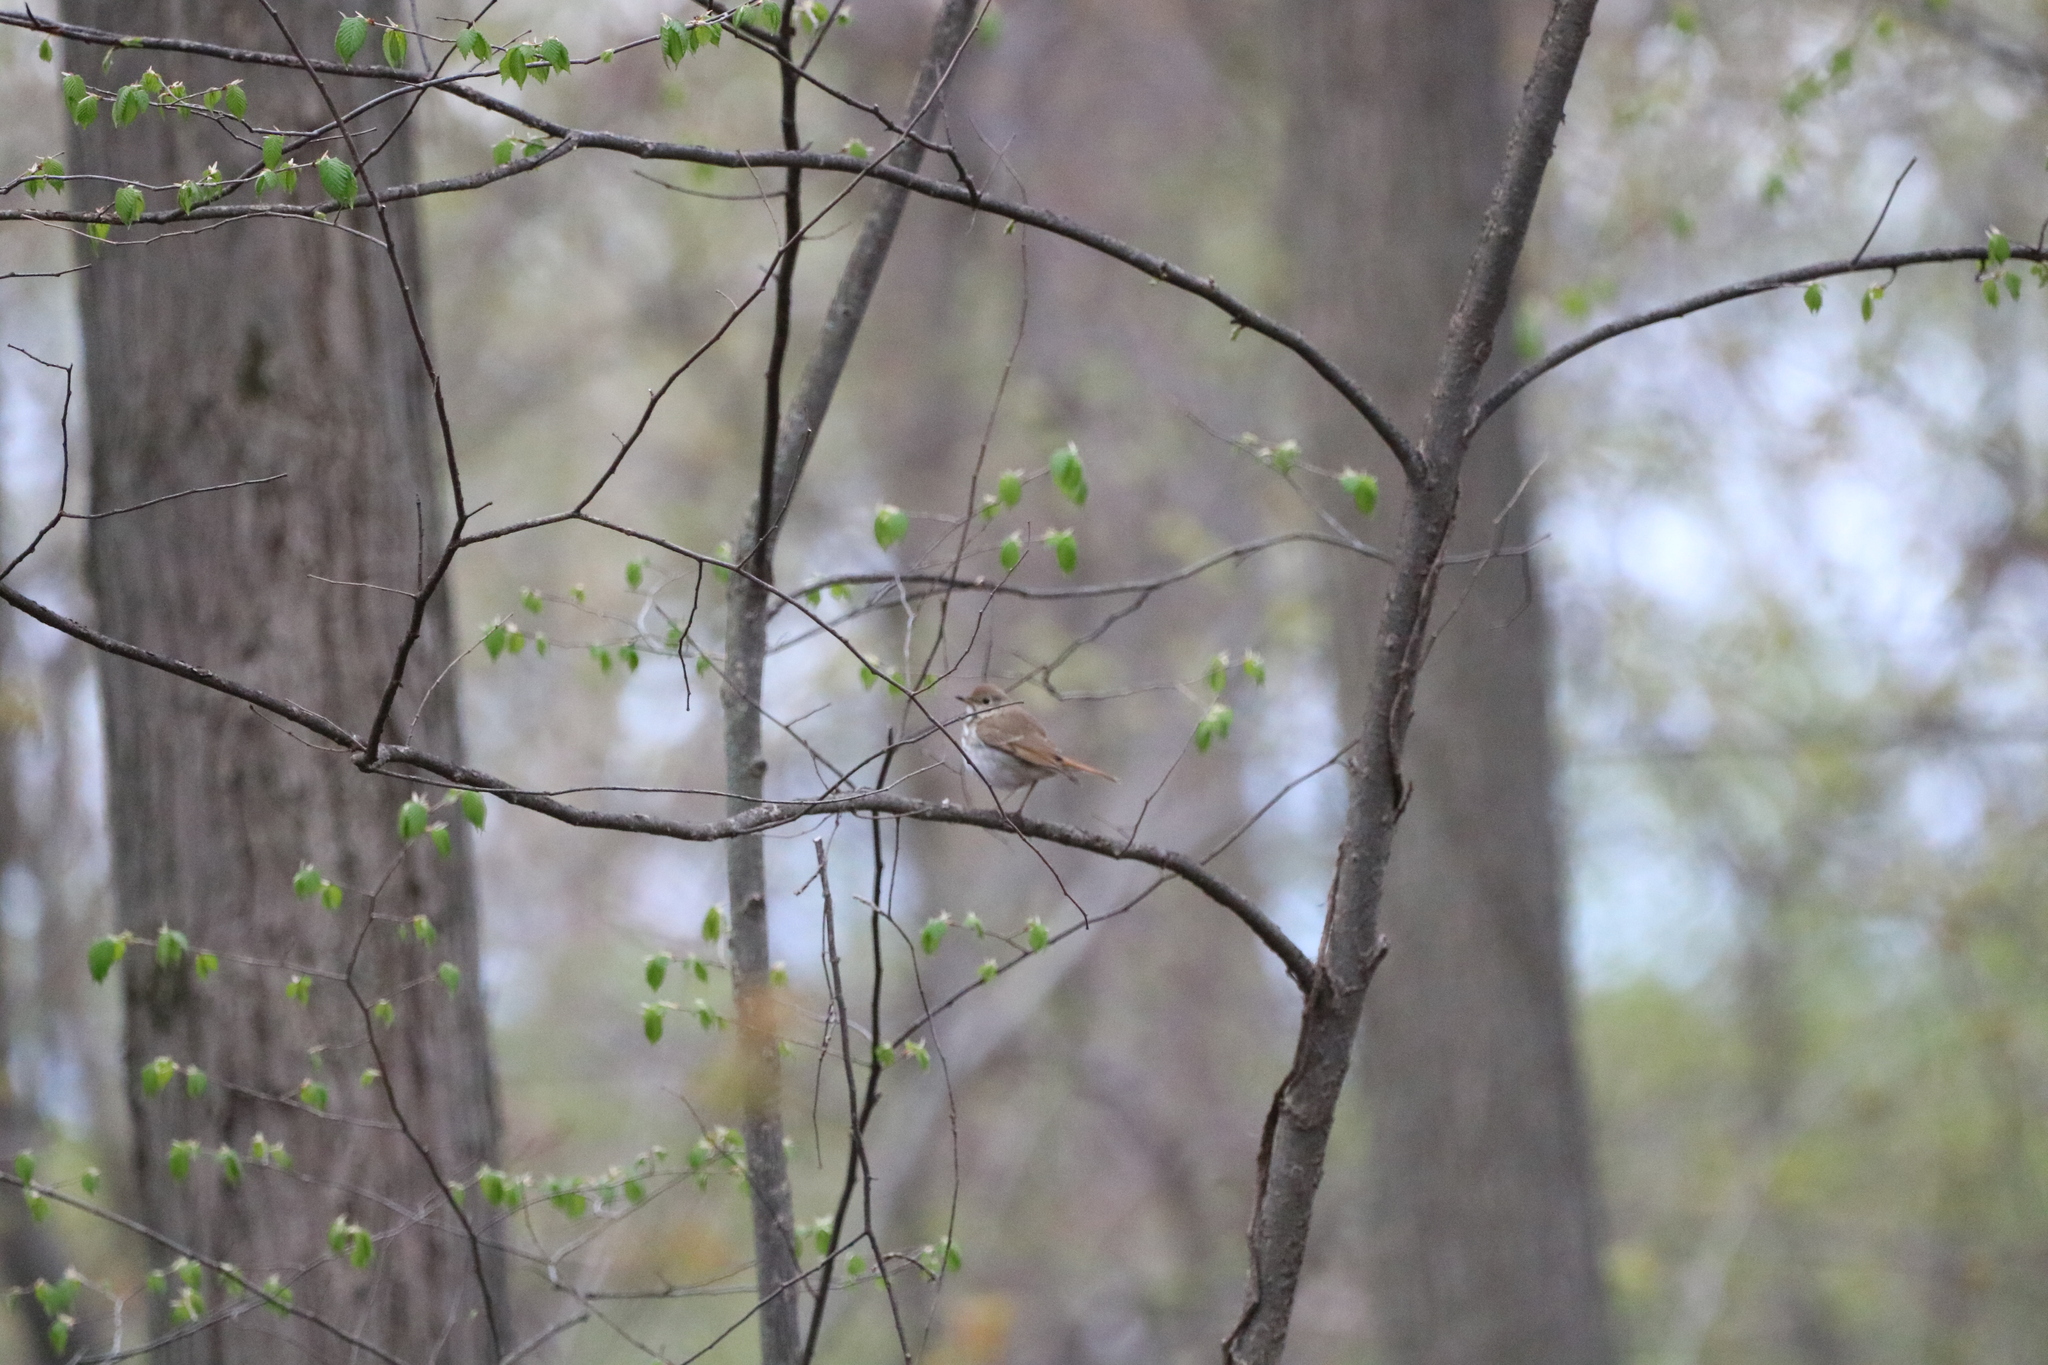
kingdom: Animalia
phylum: Chordata
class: Aves
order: Passeriformes
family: Turdidae
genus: Catharus
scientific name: Catharus guttatus
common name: Hermit thrush
